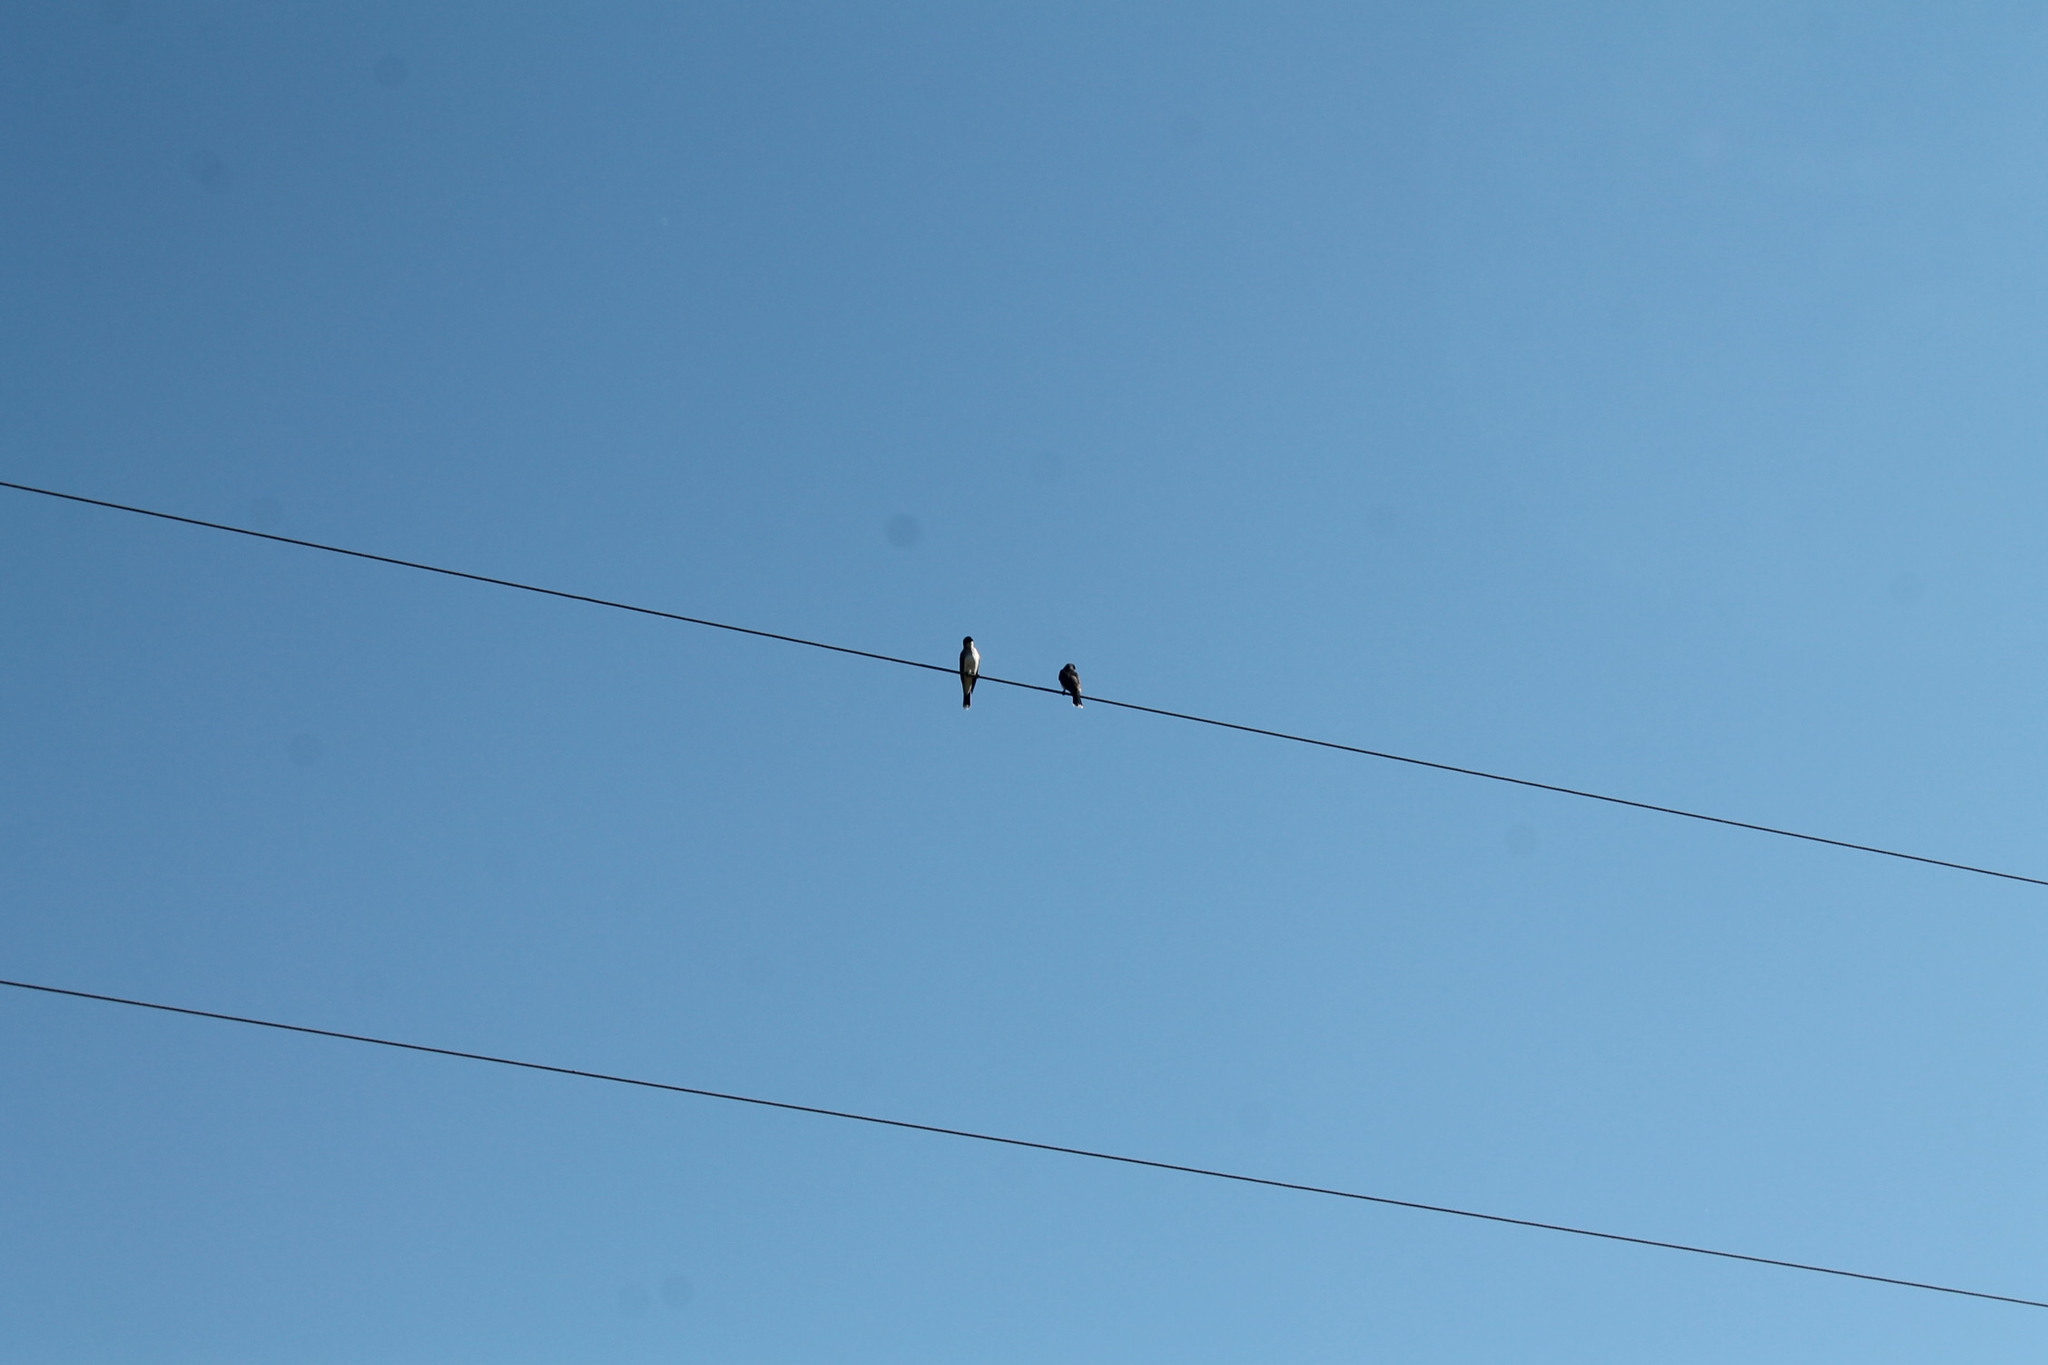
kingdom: Animalia
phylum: Chordata
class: Aves
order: Passeriformes
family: Tyrannidae
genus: Tyrannus
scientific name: Tyrannus tyrannus
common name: Eastern kingbird
